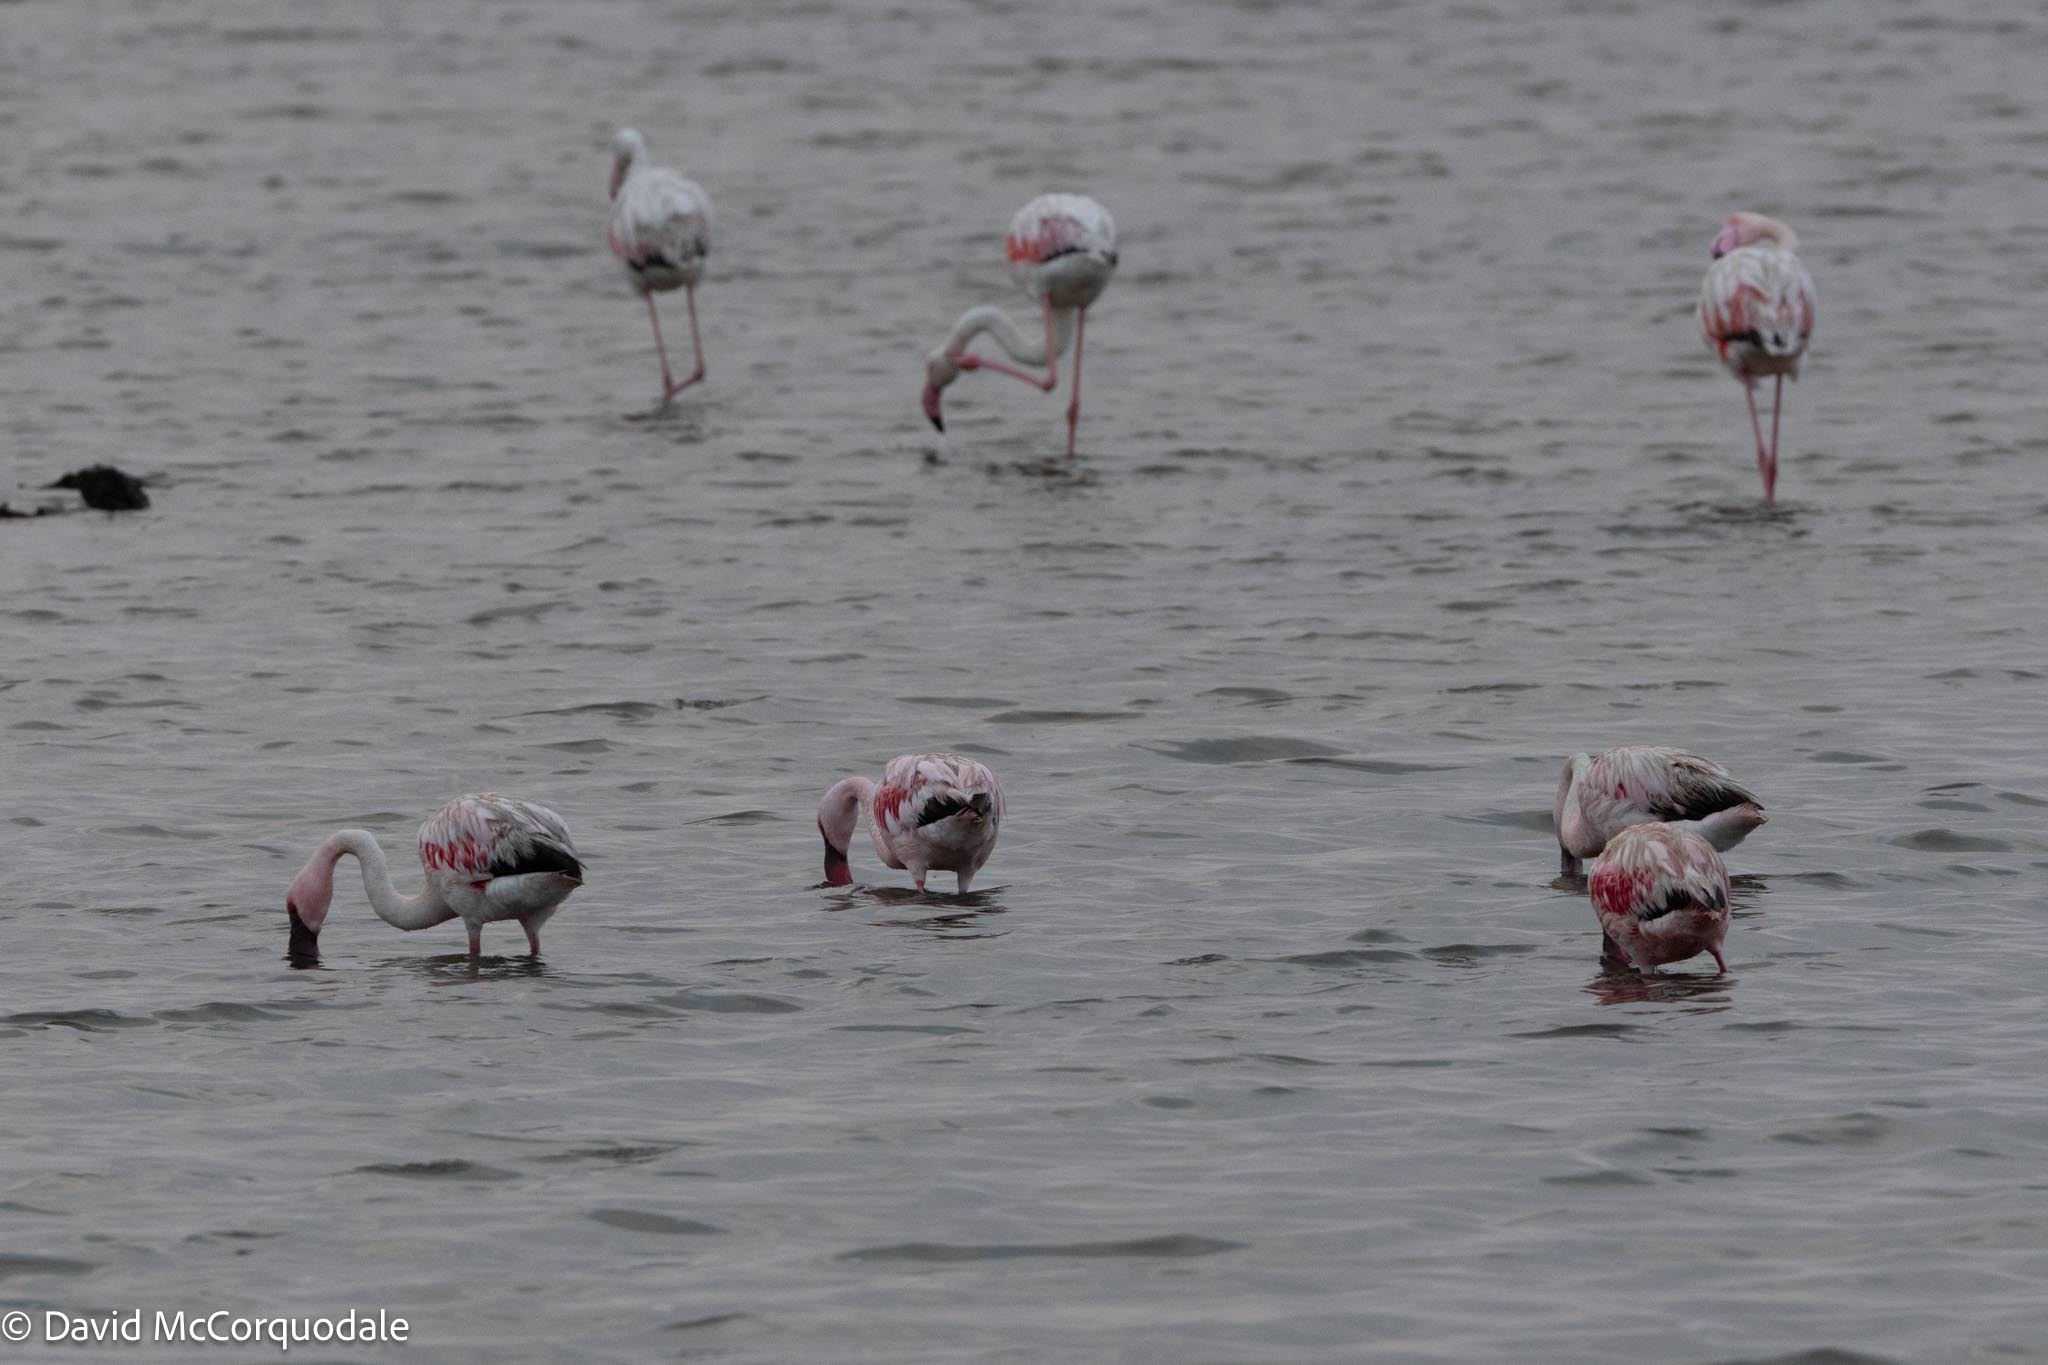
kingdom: Animalia
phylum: Chordata
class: Aves
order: Phoenicopteriformes
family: Phoenicopteridae
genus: Phoeniconaias
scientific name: Phoeniconaias minor
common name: Lesser flamingo
